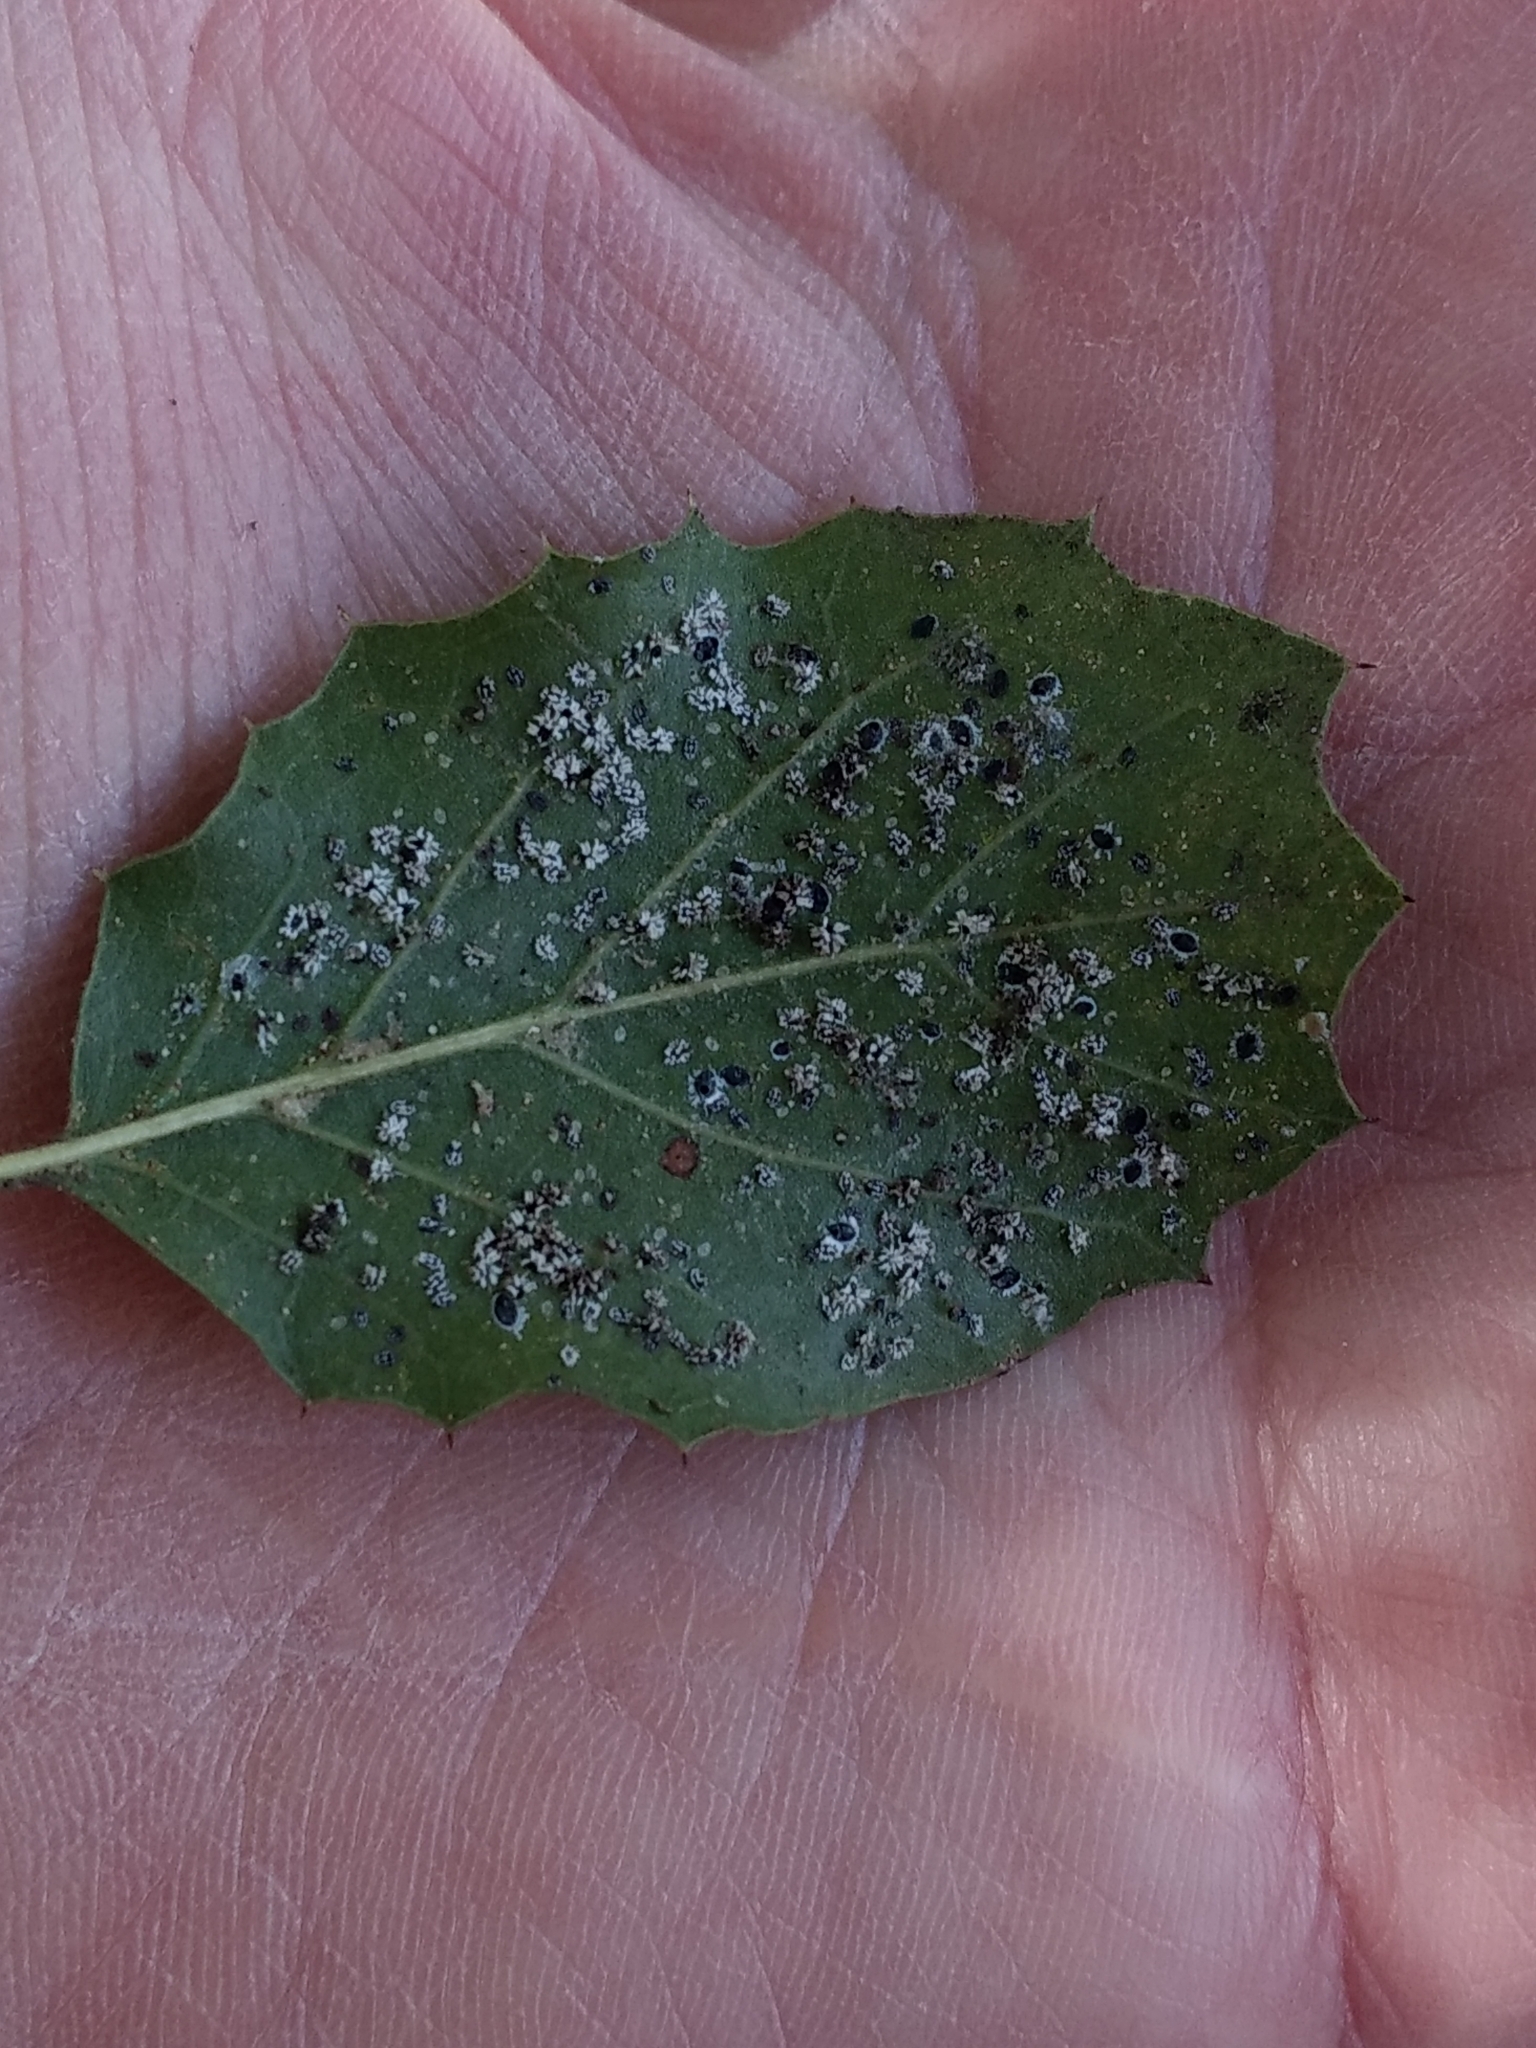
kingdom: Animalia
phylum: Arthropoda
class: Insecta
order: Hemiptera
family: Aleyrodidae
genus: Aleuroplatus
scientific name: Aleuroplatus coronata
